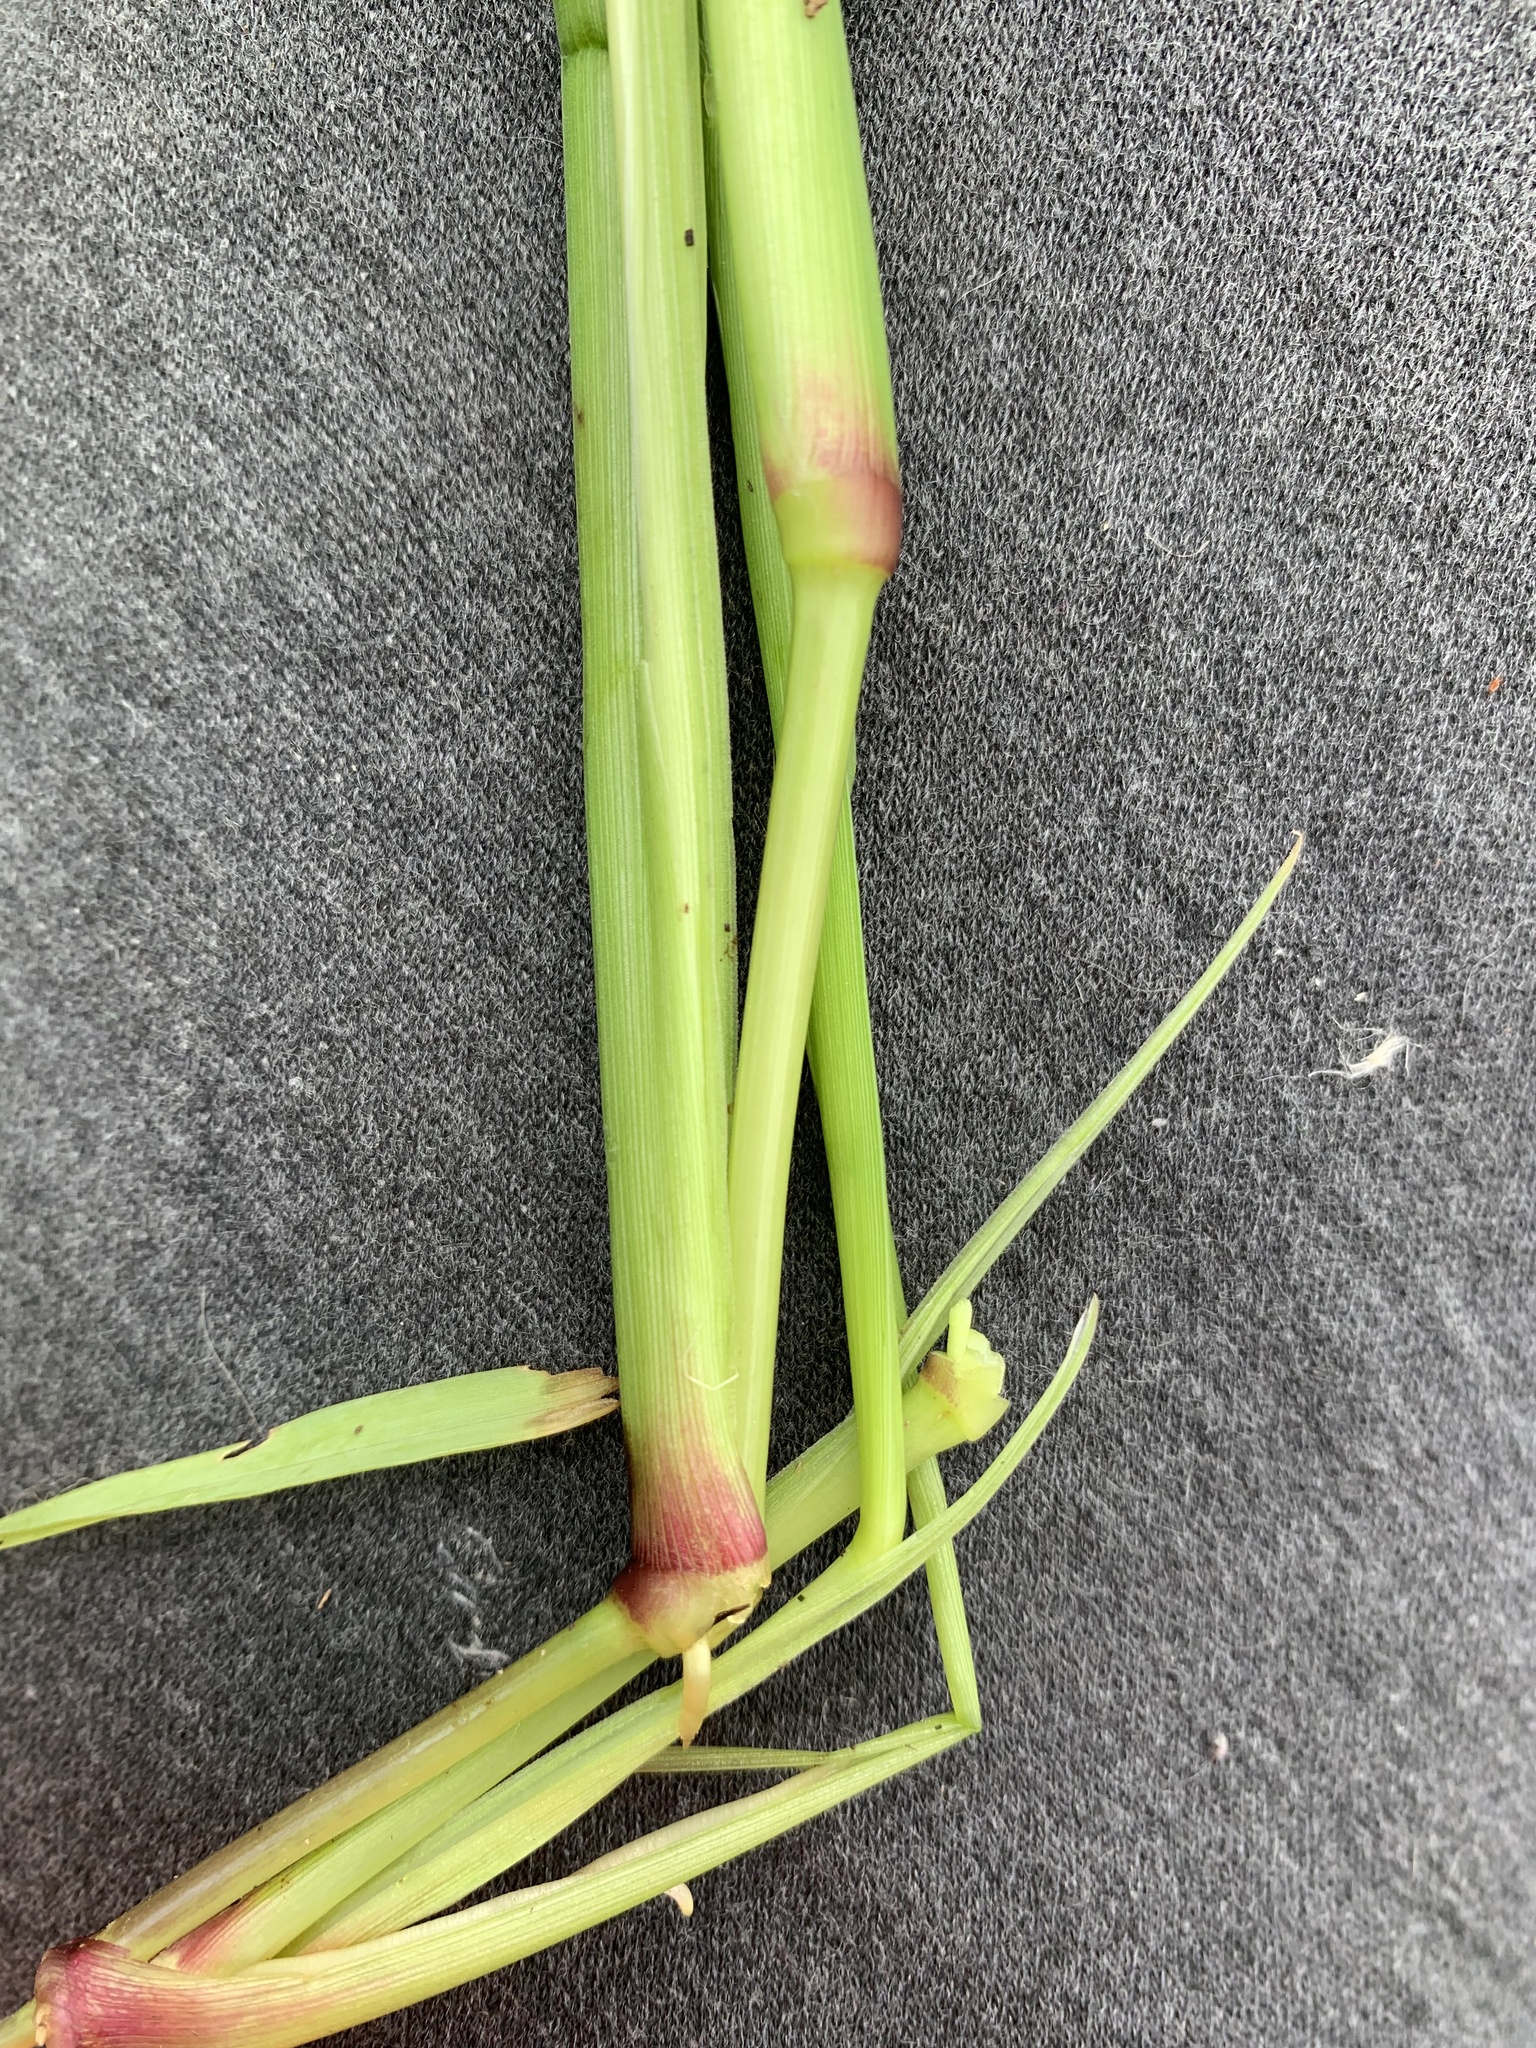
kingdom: Plantae
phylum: Tracheophyta
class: Liliopsida
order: Poales
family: Poaceae
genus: Setaria
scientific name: Setaria pumila
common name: Yellow bristle-grass
